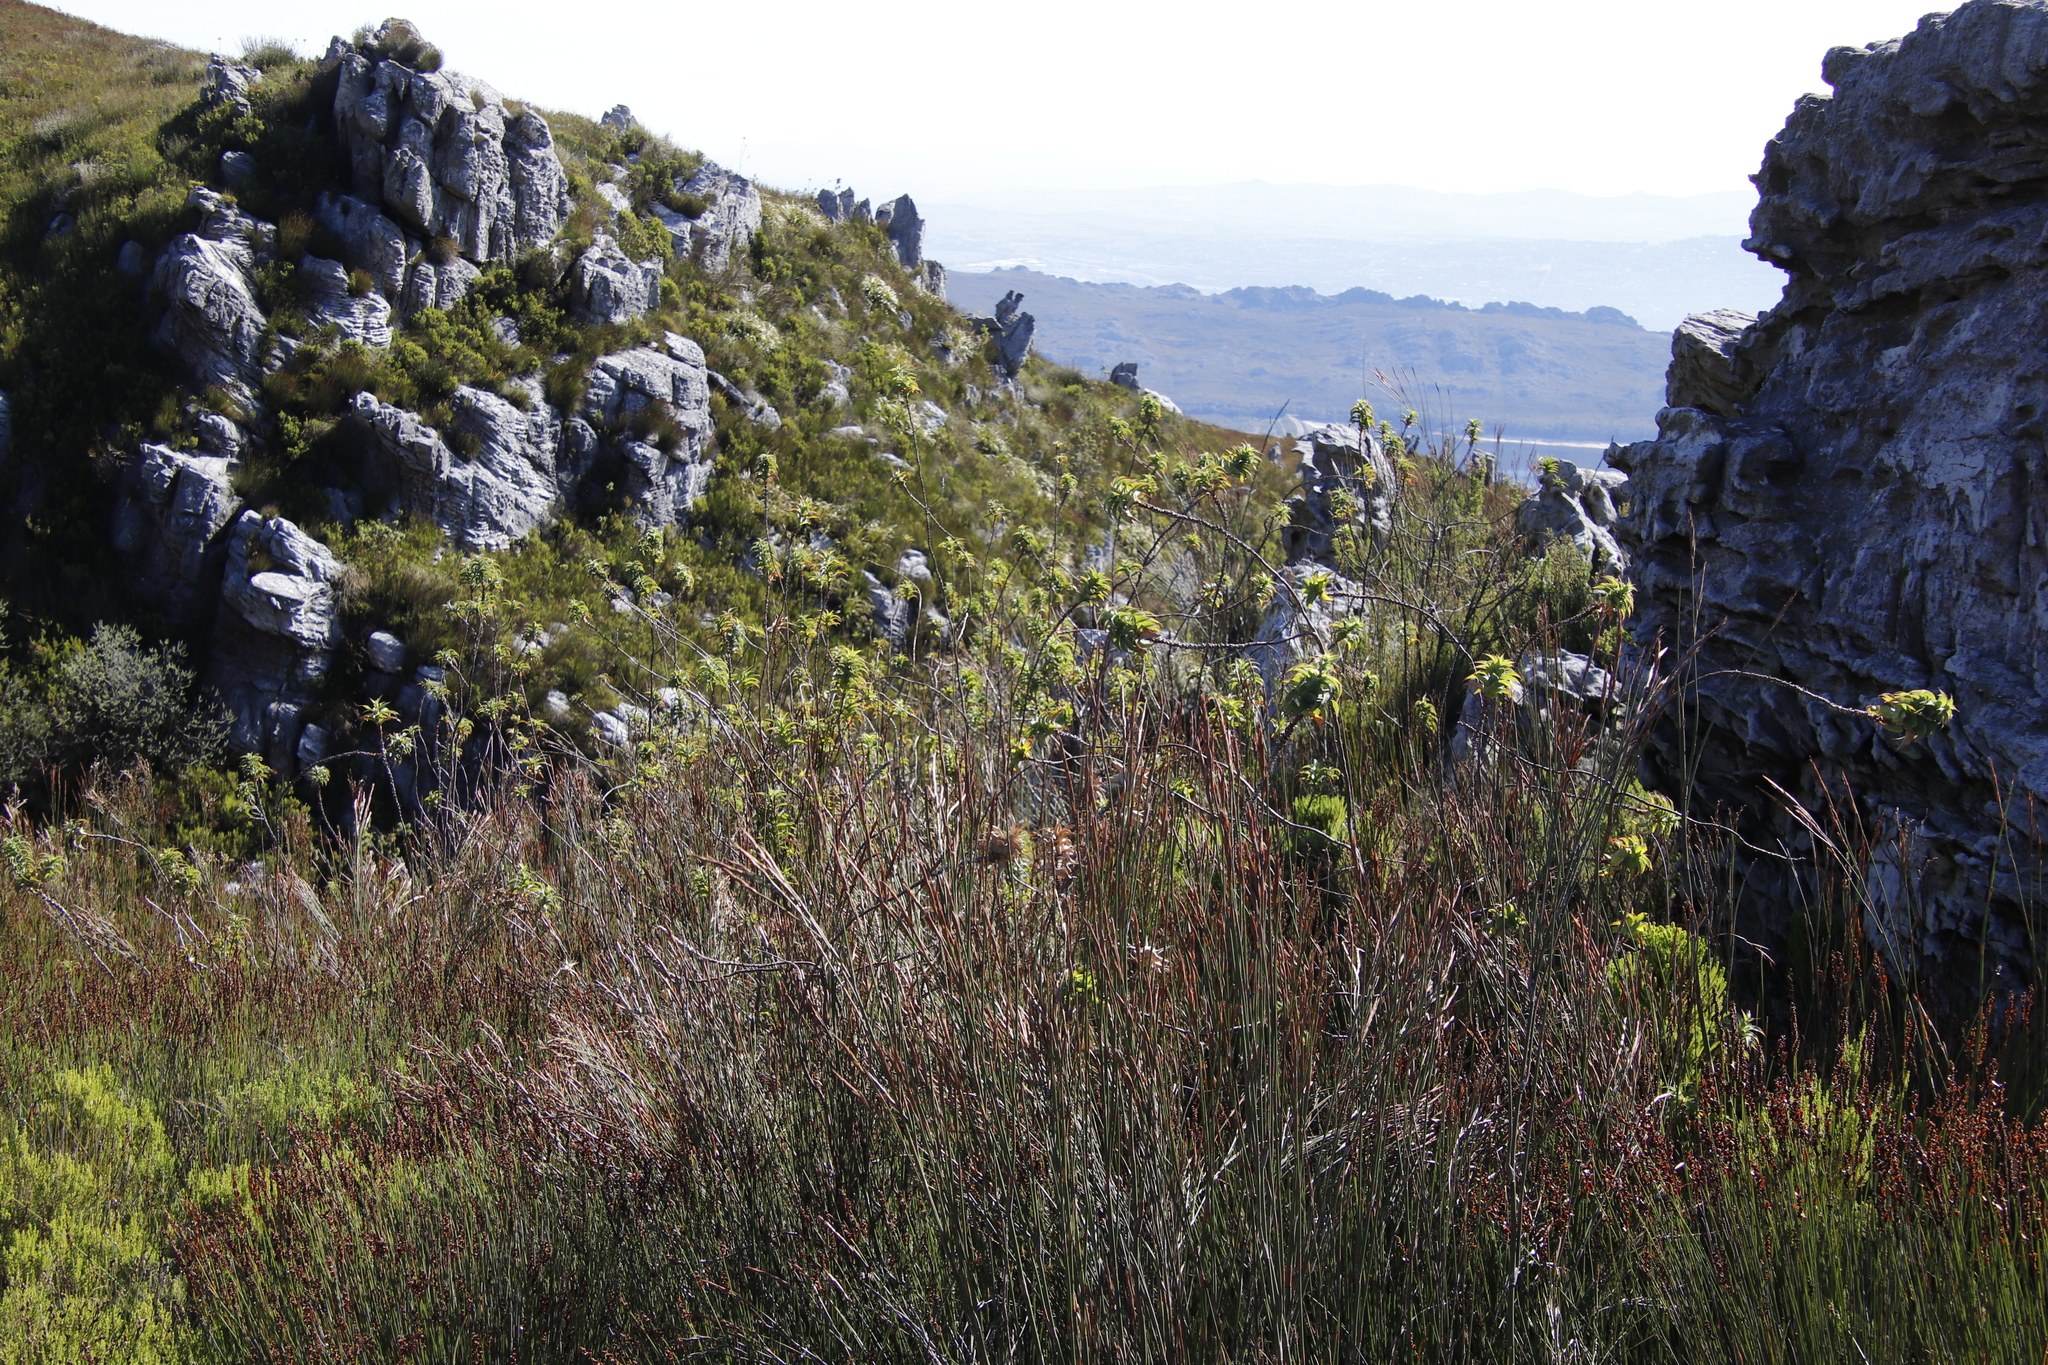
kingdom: Plantae
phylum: Tracheophyta
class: Magnoliopsida
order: Rosales
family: Rosaceae
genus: Cliffortia
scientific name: Cliffortia recurvata
